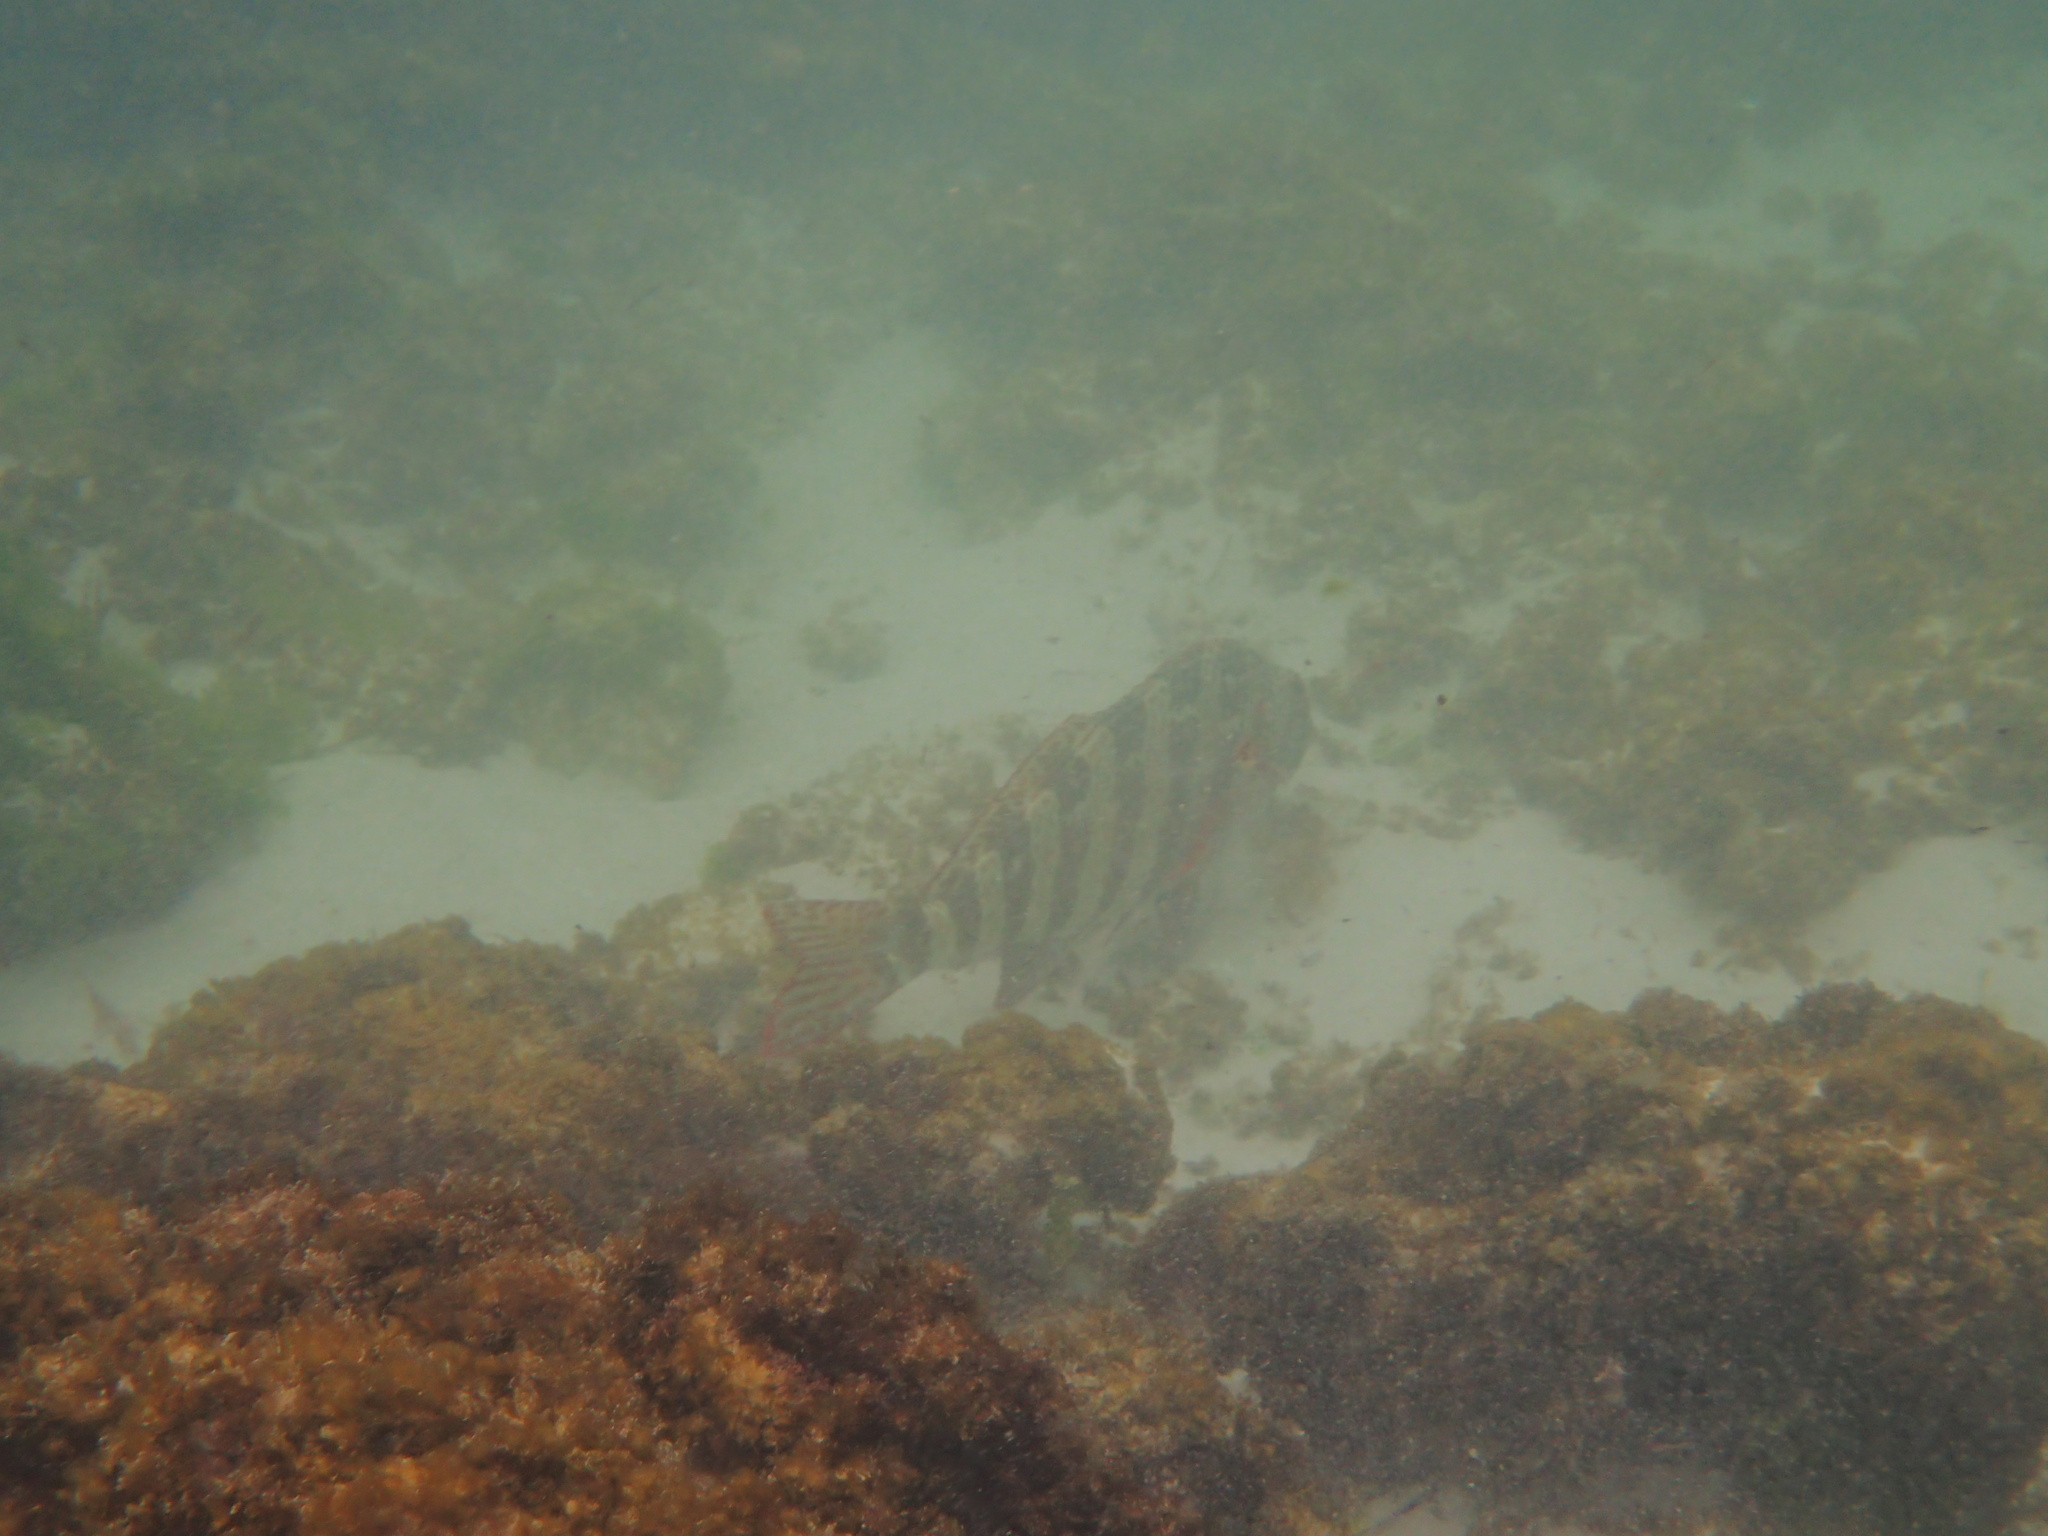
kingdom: Animalia
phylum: Chordata
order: Perciformes
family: Cheilodactylidae
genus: Cheilodactylus
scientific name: Cheilodactylus rubrolabiatus
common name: Redlip morwong
